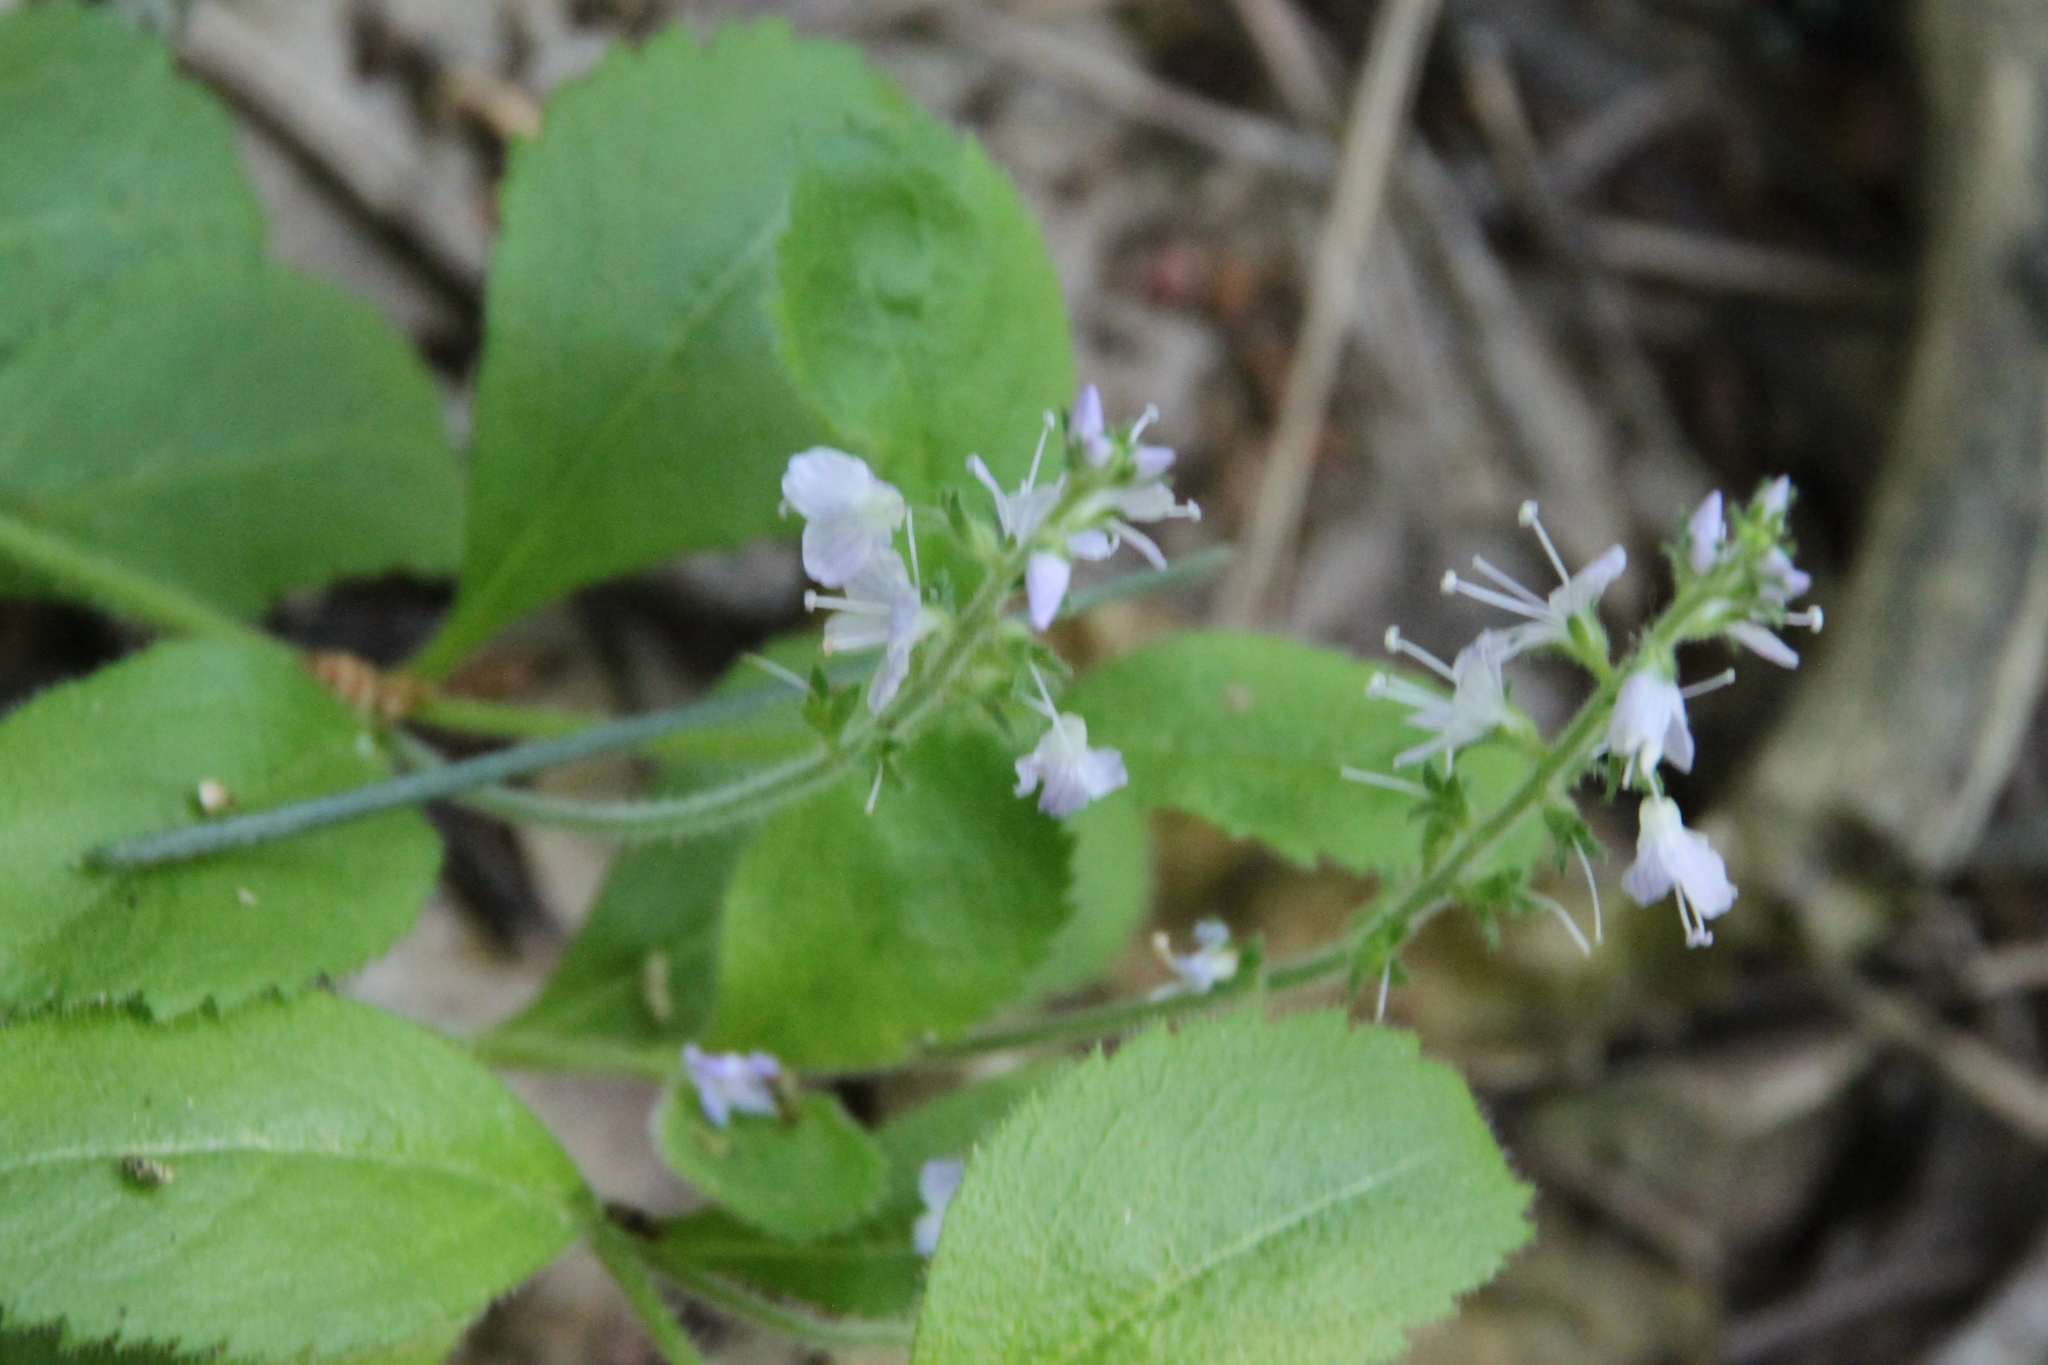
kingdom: Plantae
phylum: Tracheophyta
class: Magnoliopsida
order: Lamiales
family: Plantaginaceae
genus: Veronica
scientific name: Veronica officinalis
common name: Common speedwell
